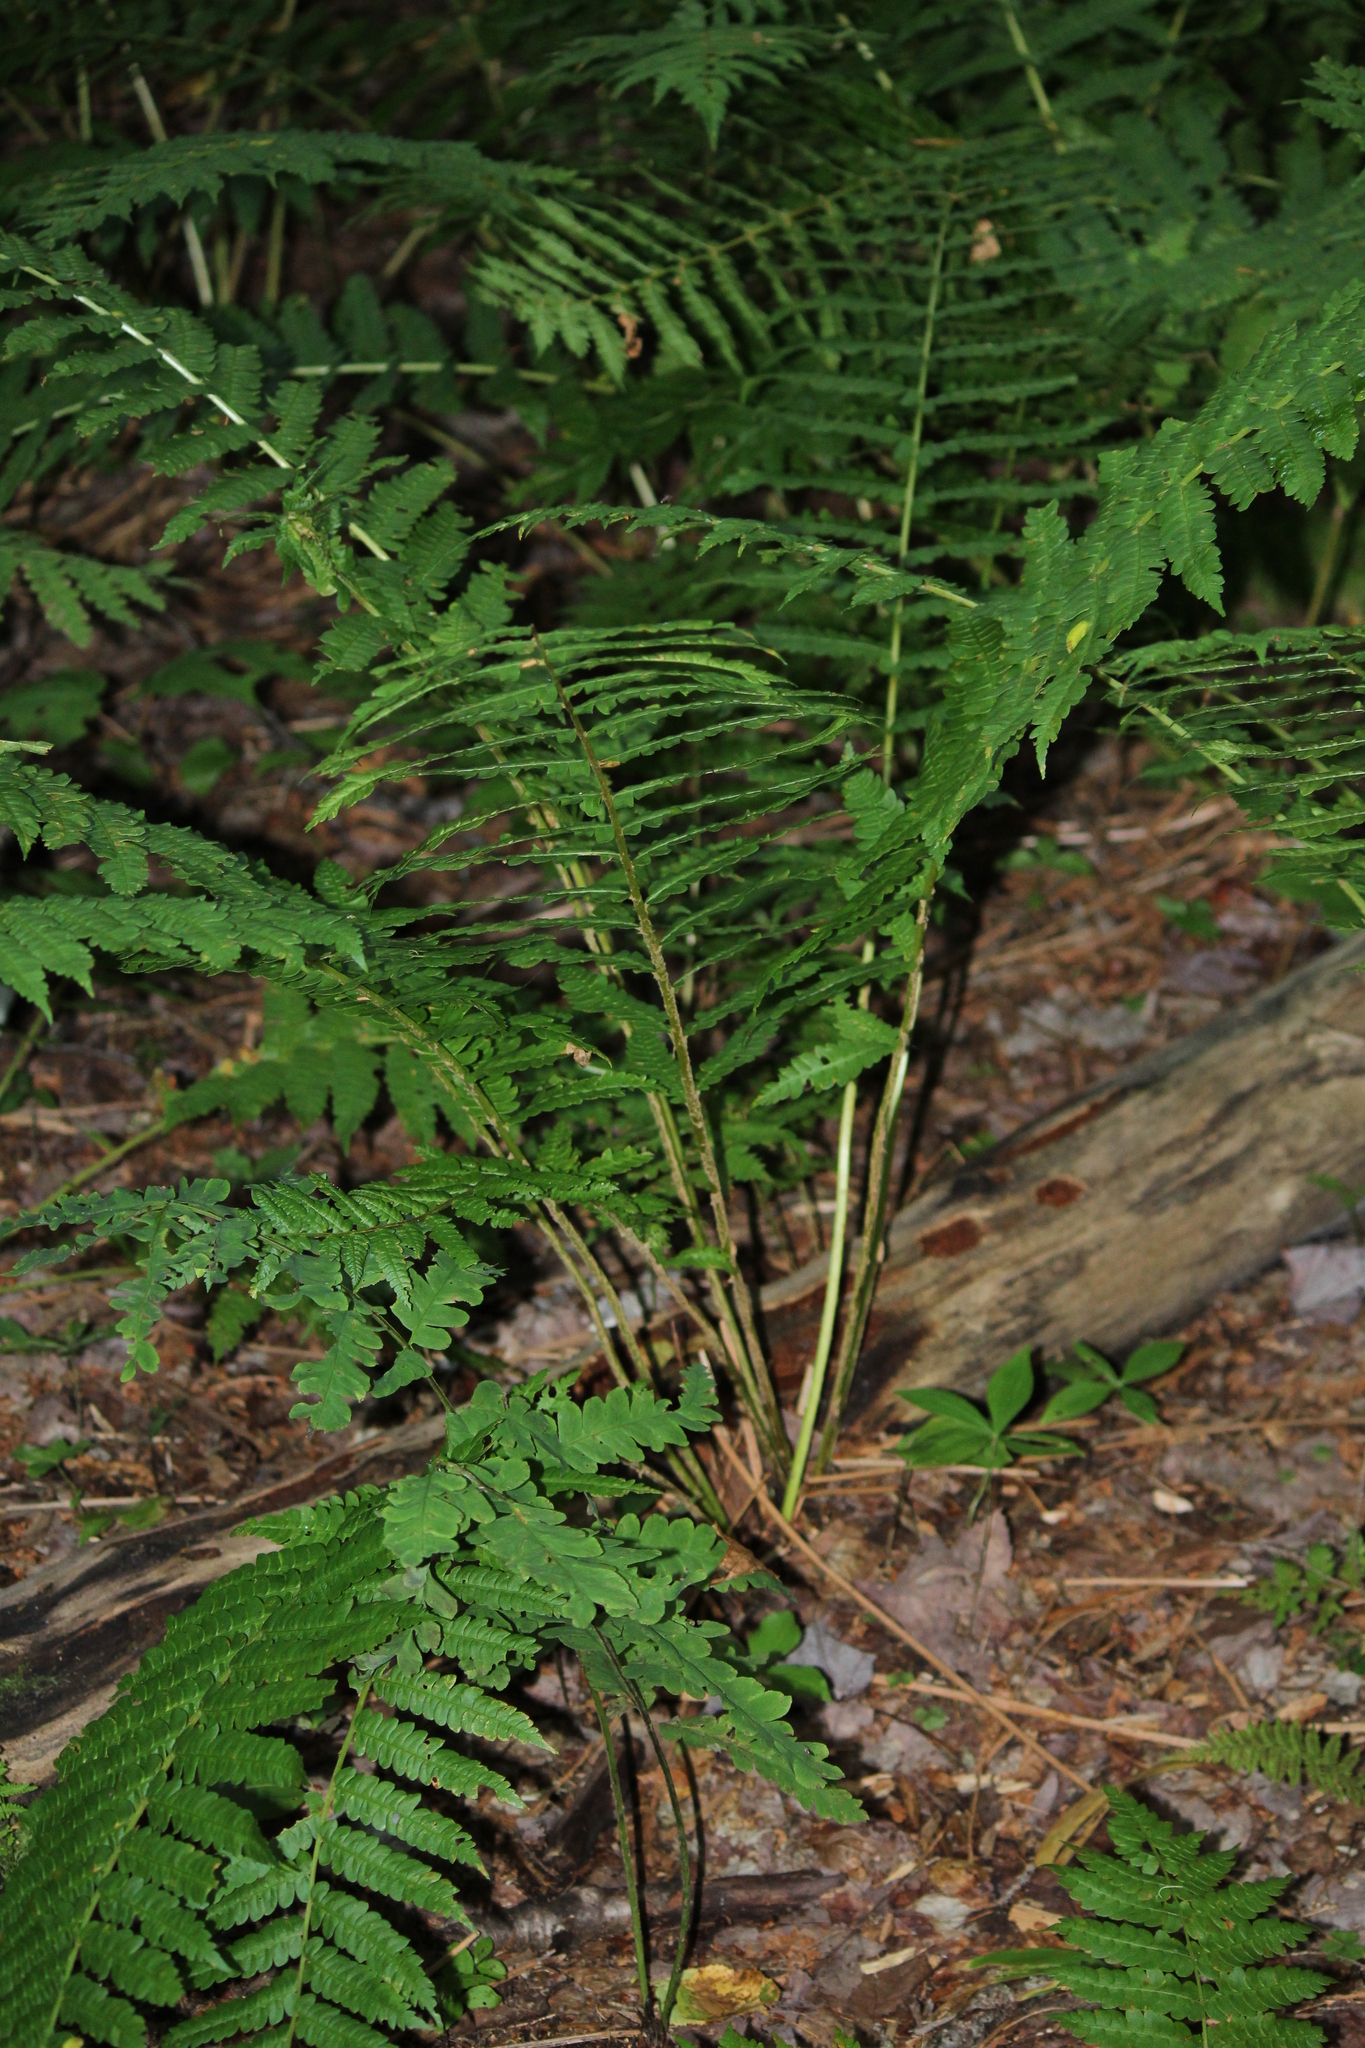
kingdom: Plantae
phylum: Tracheophyta
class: Polypodiopsida
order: Osmundales
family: Osmundaceae
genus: Osmundastrum
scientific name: Osmundastrum cinnamomeum
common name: Cinnamon fern
